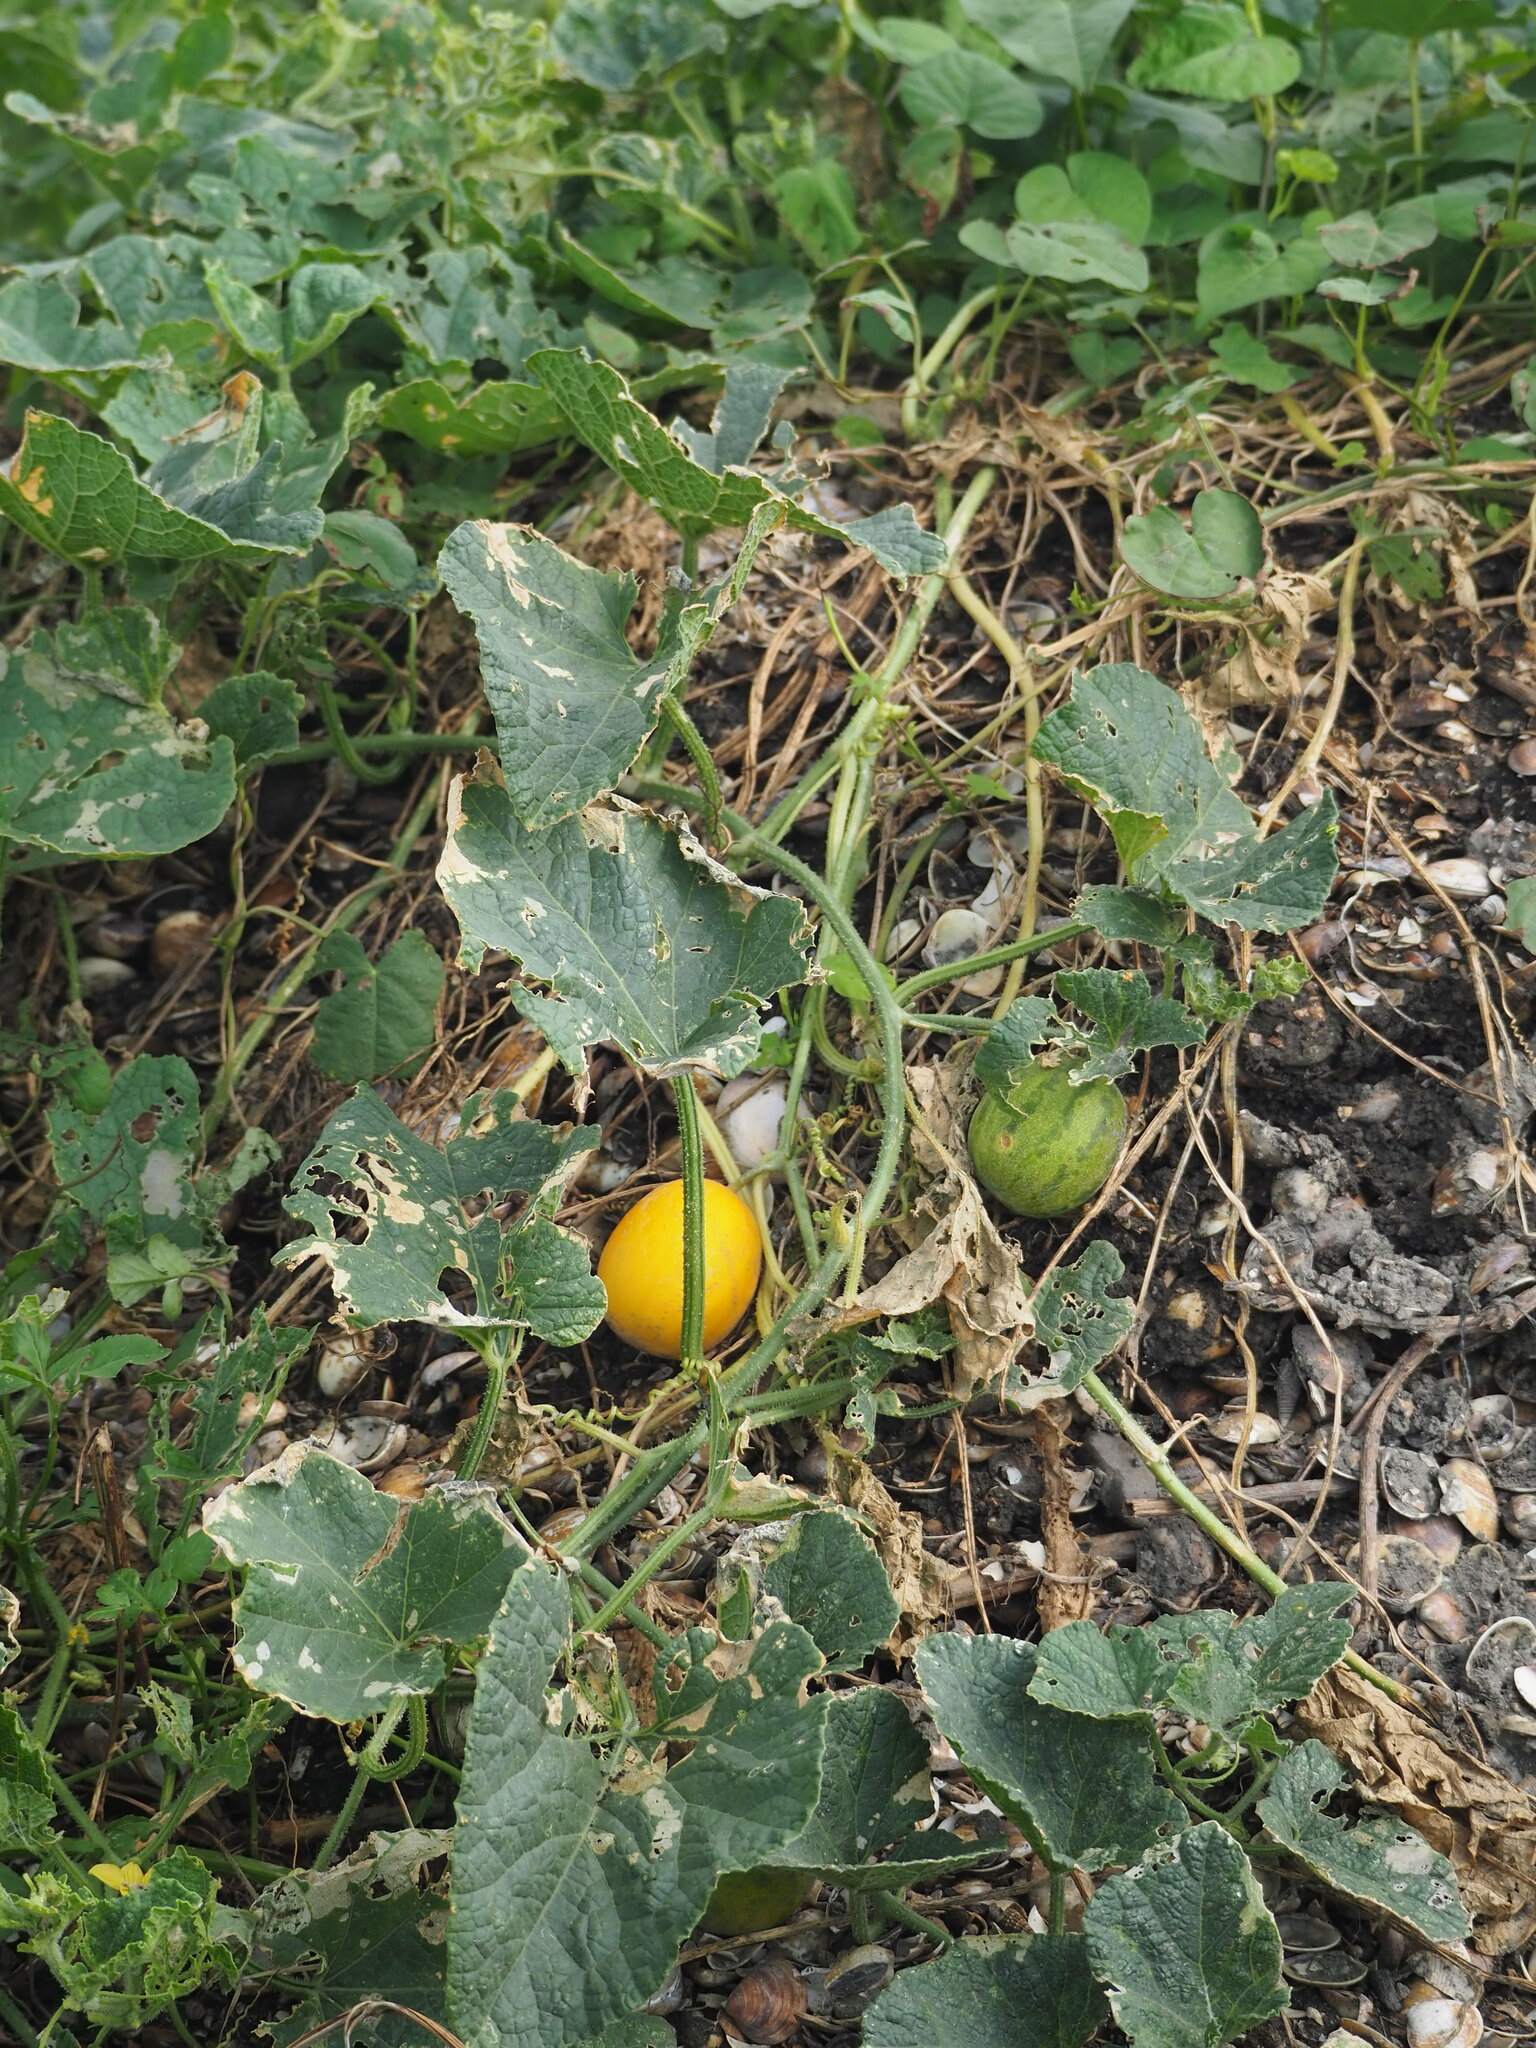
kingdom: Plantae
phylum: Tracheophyta
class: Magnoliopsida
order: Cucurbitales
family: Cucurbitaceae
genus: Cucumis
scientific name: Cucumis melo
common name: Melon
